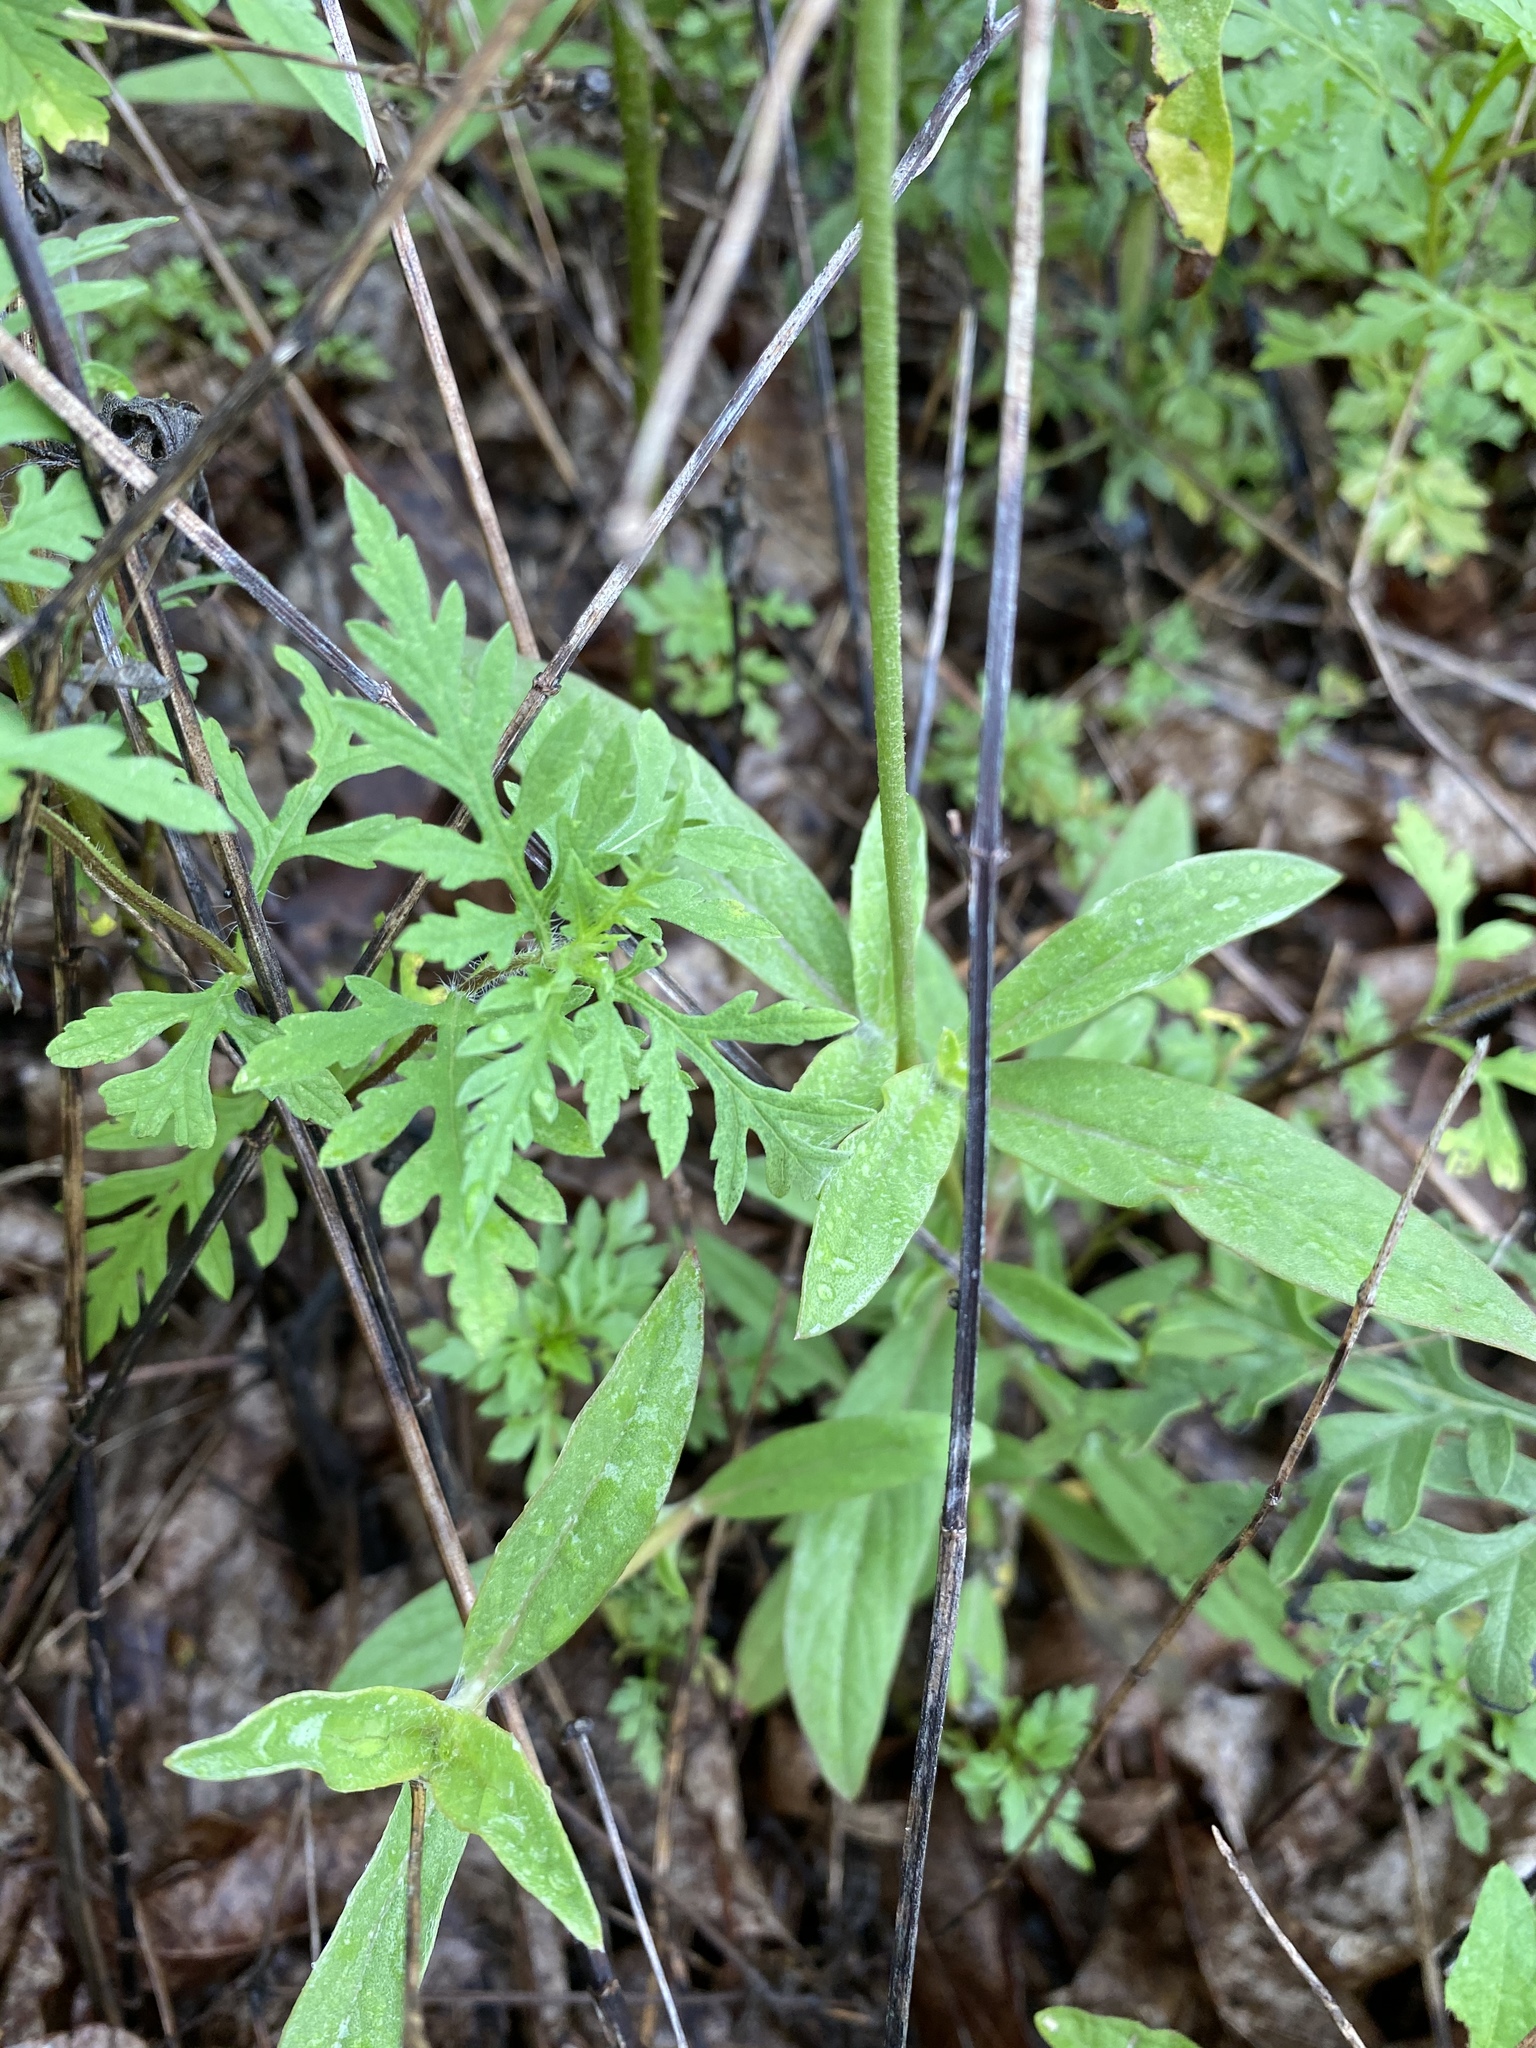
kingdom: Plantae
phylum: Tracheophyta
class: Magnoliopsida
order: Caryophyllales
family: Amaranthaceae
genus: Froelichia
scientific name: Froelichia gracilis
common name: Slender cottonweed
